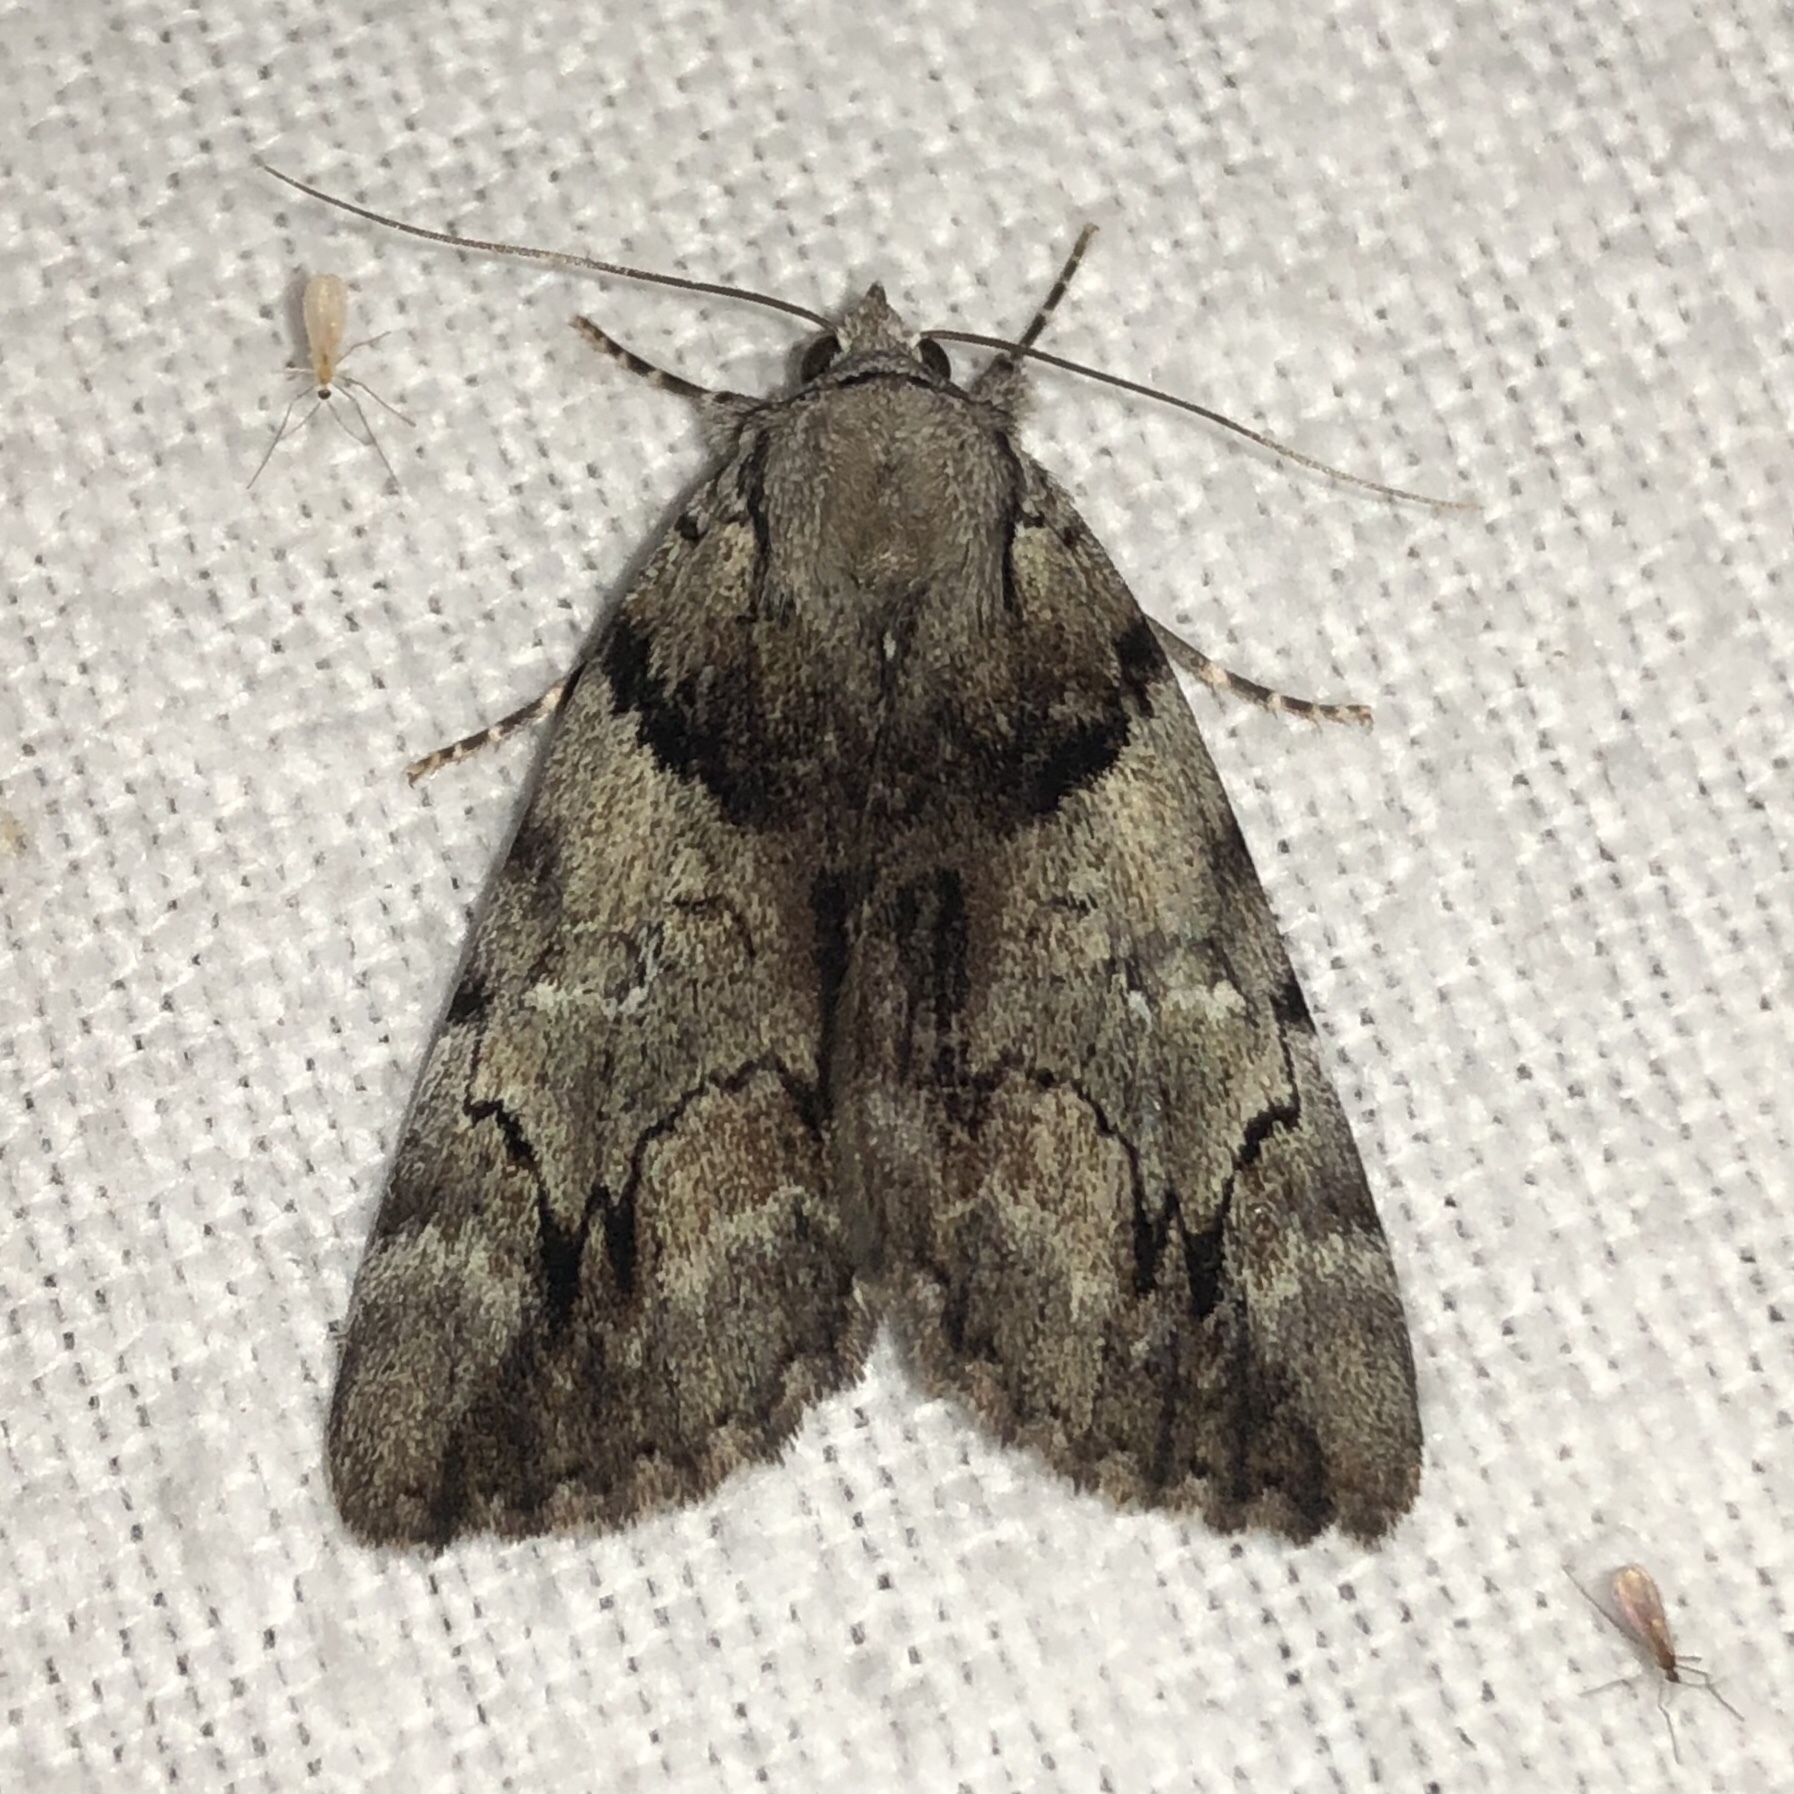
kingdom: Animalia
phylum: Arthropoda
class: Insecta
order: Lepidoptera
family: Erebidae
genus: Catocala
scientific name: Catocala blandula
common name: Charming underwing
